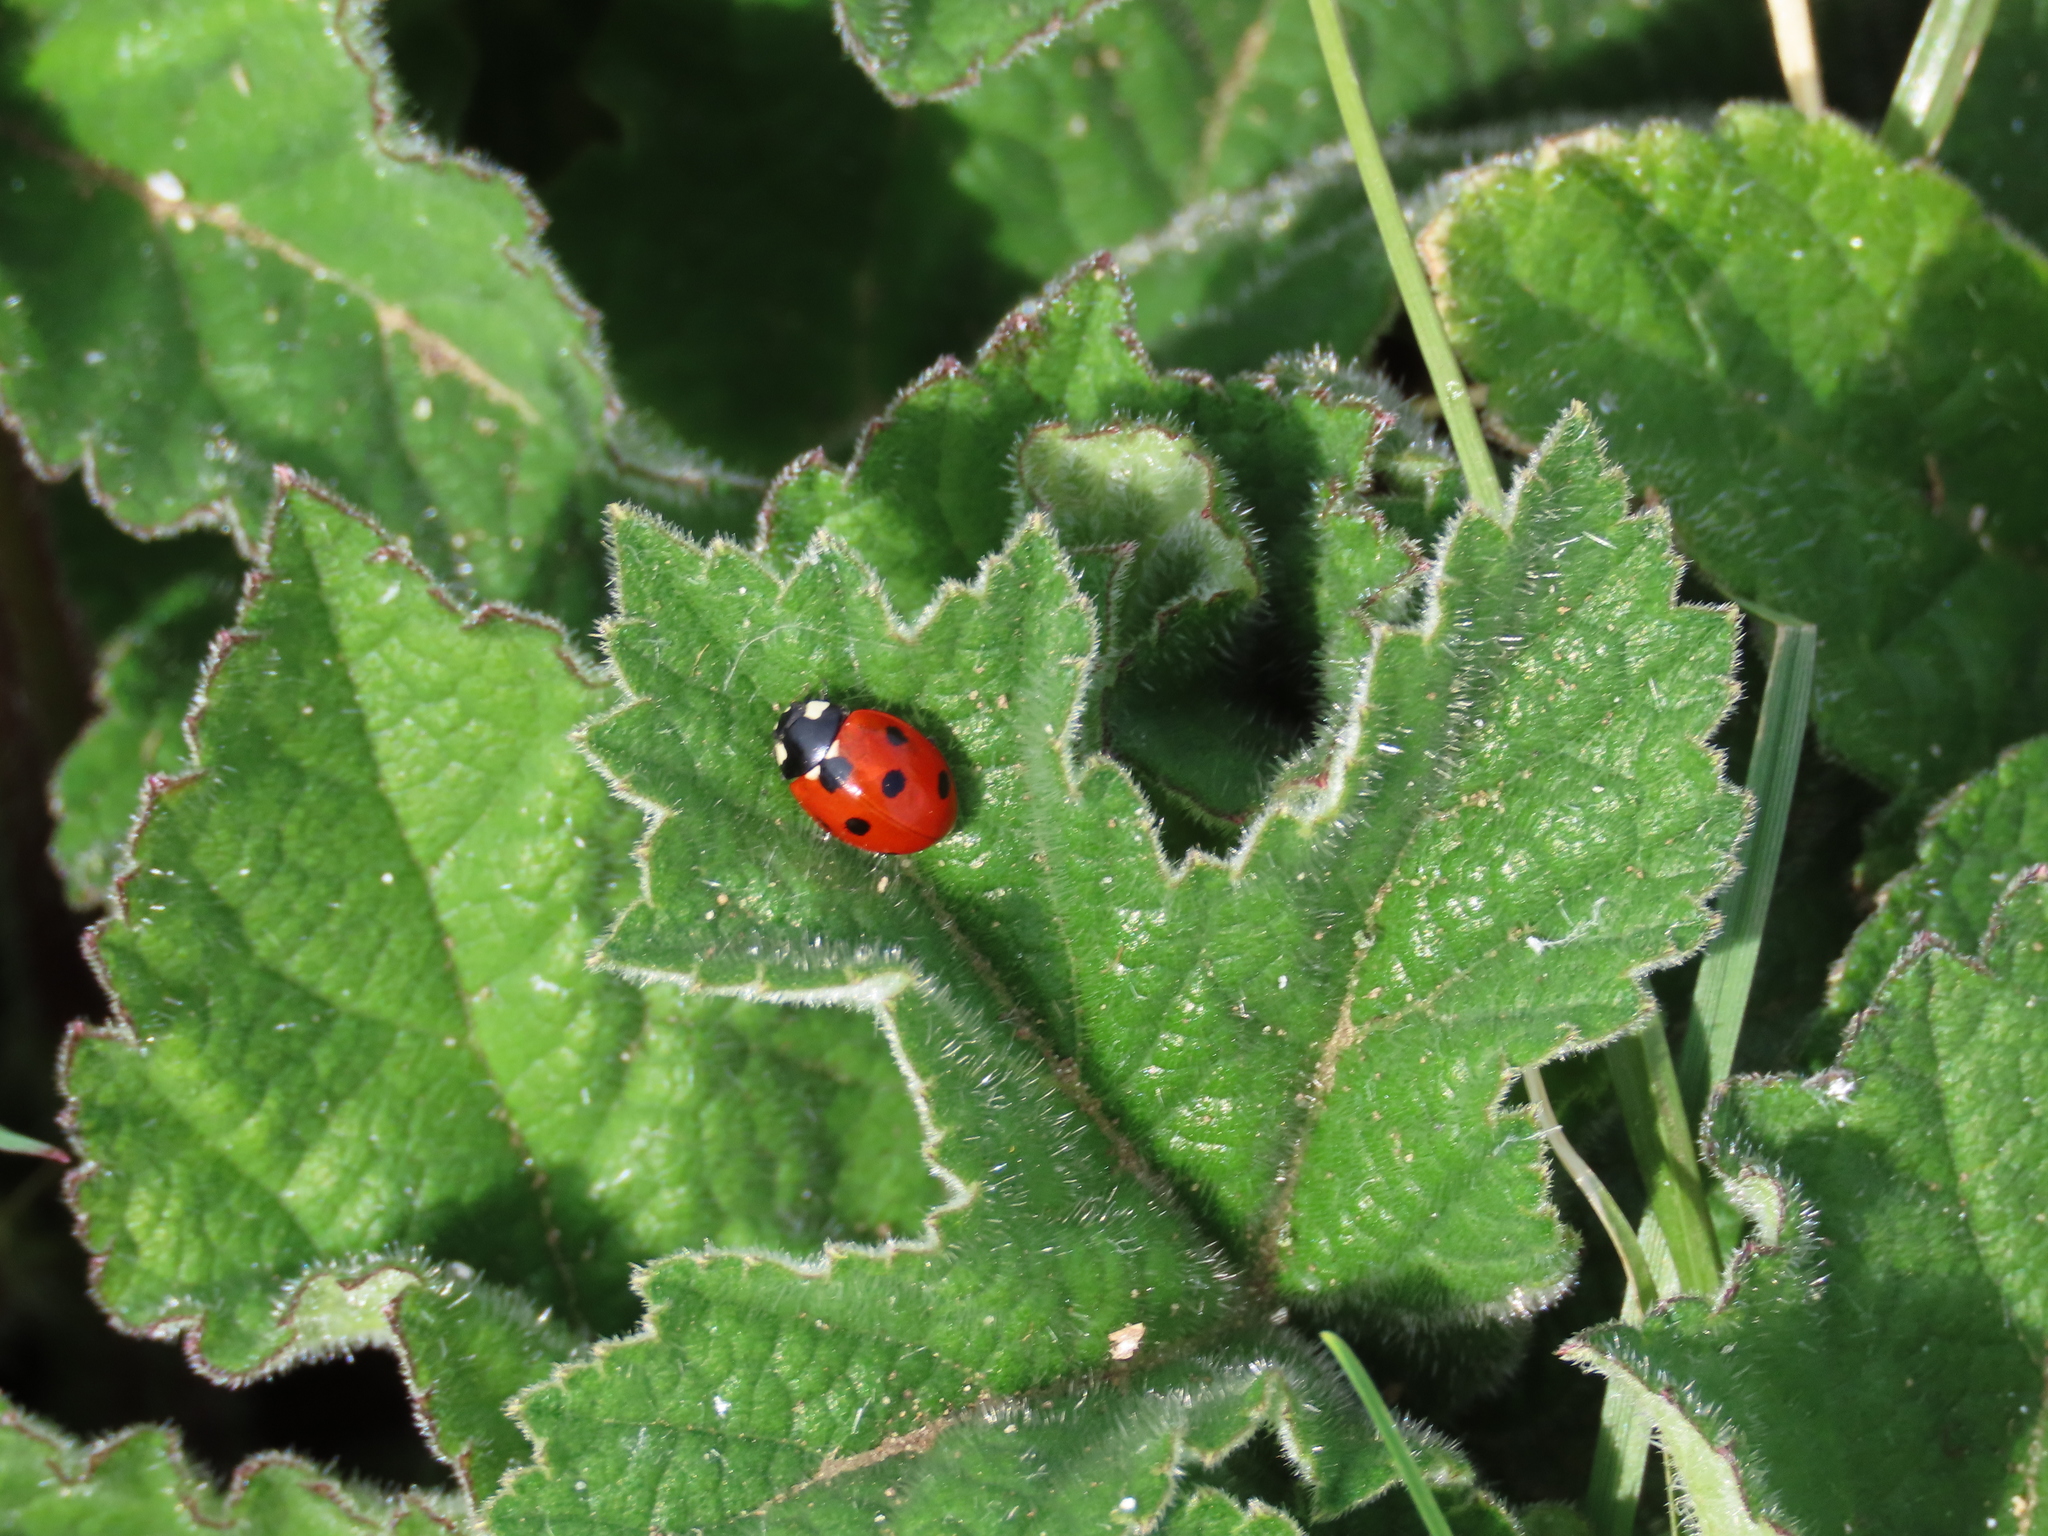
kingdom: Animalia
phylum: Arthropoda
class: Insecta
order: Coleoptera
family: Coccinellidae
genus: Coccinella
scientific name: Coccinella septempunctata
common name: Sevenspotted lady beetle
